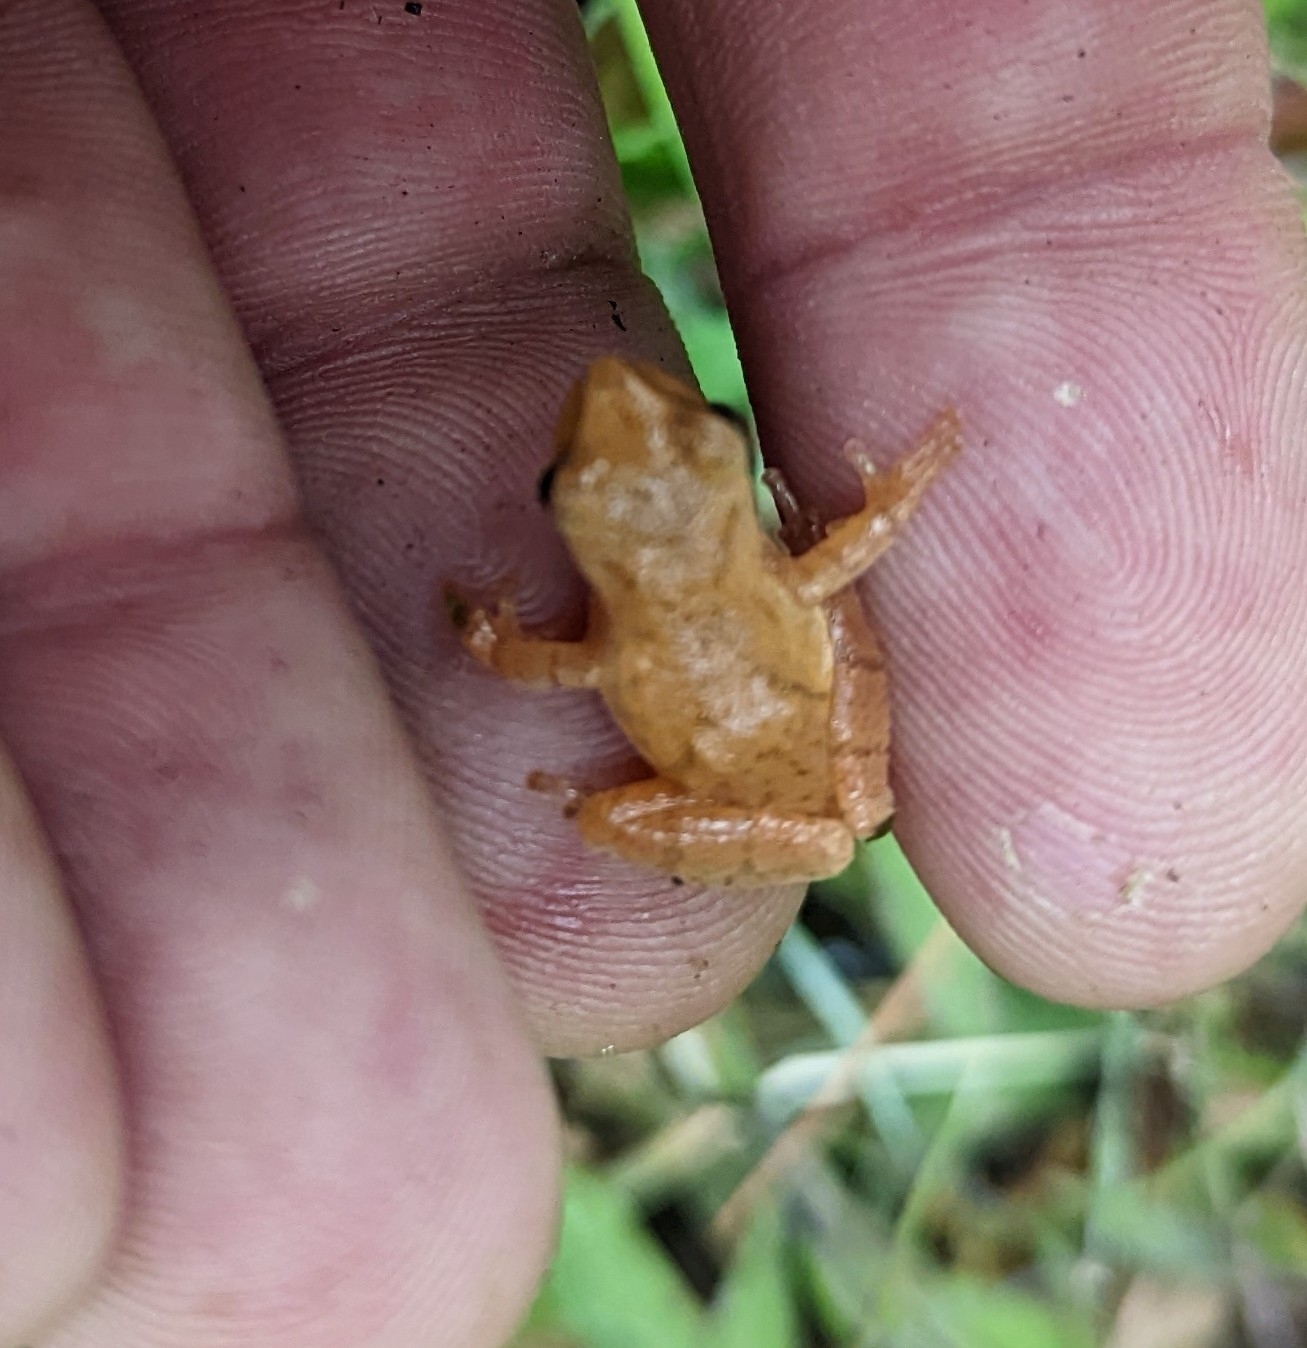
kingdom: Animalia
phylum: Chordata
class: Amphibia
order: Anura
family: Hylidae
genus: Pseudacris
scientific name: Pseudacris crucifer
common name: Spring peeper
